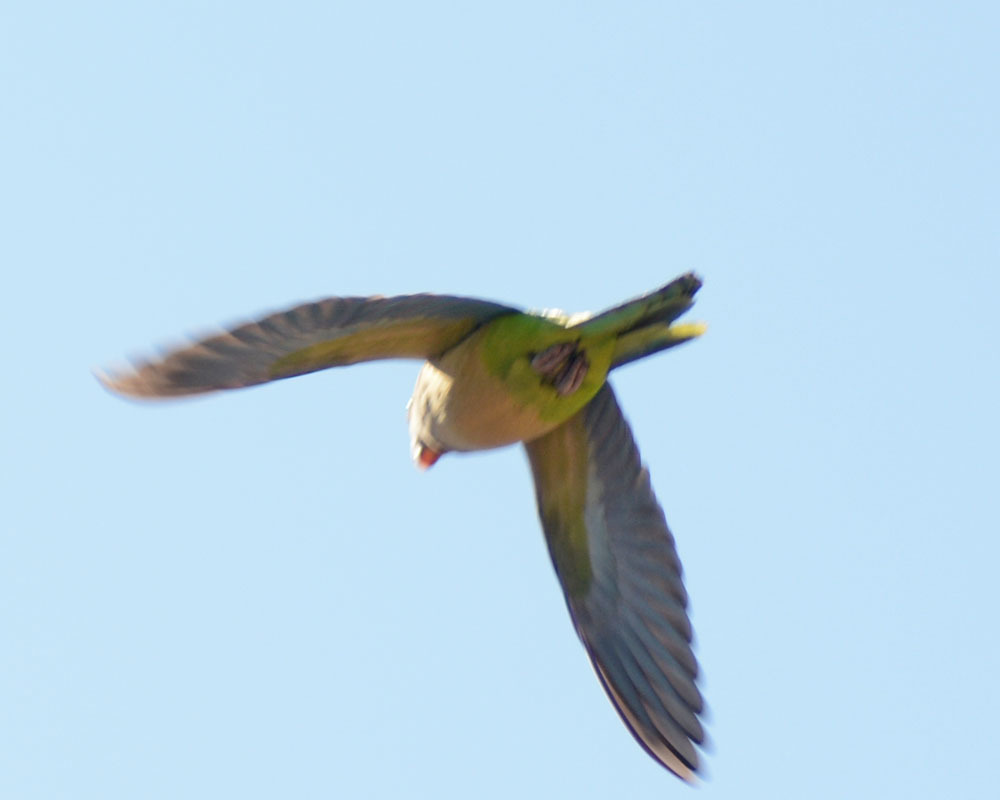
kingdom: Animalia
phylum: Chordata
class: Aves
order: Psittaciformes
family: Psittacidae
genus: Myiopsitta
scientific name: Myiopsitta monachus
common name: Monk parakeet
